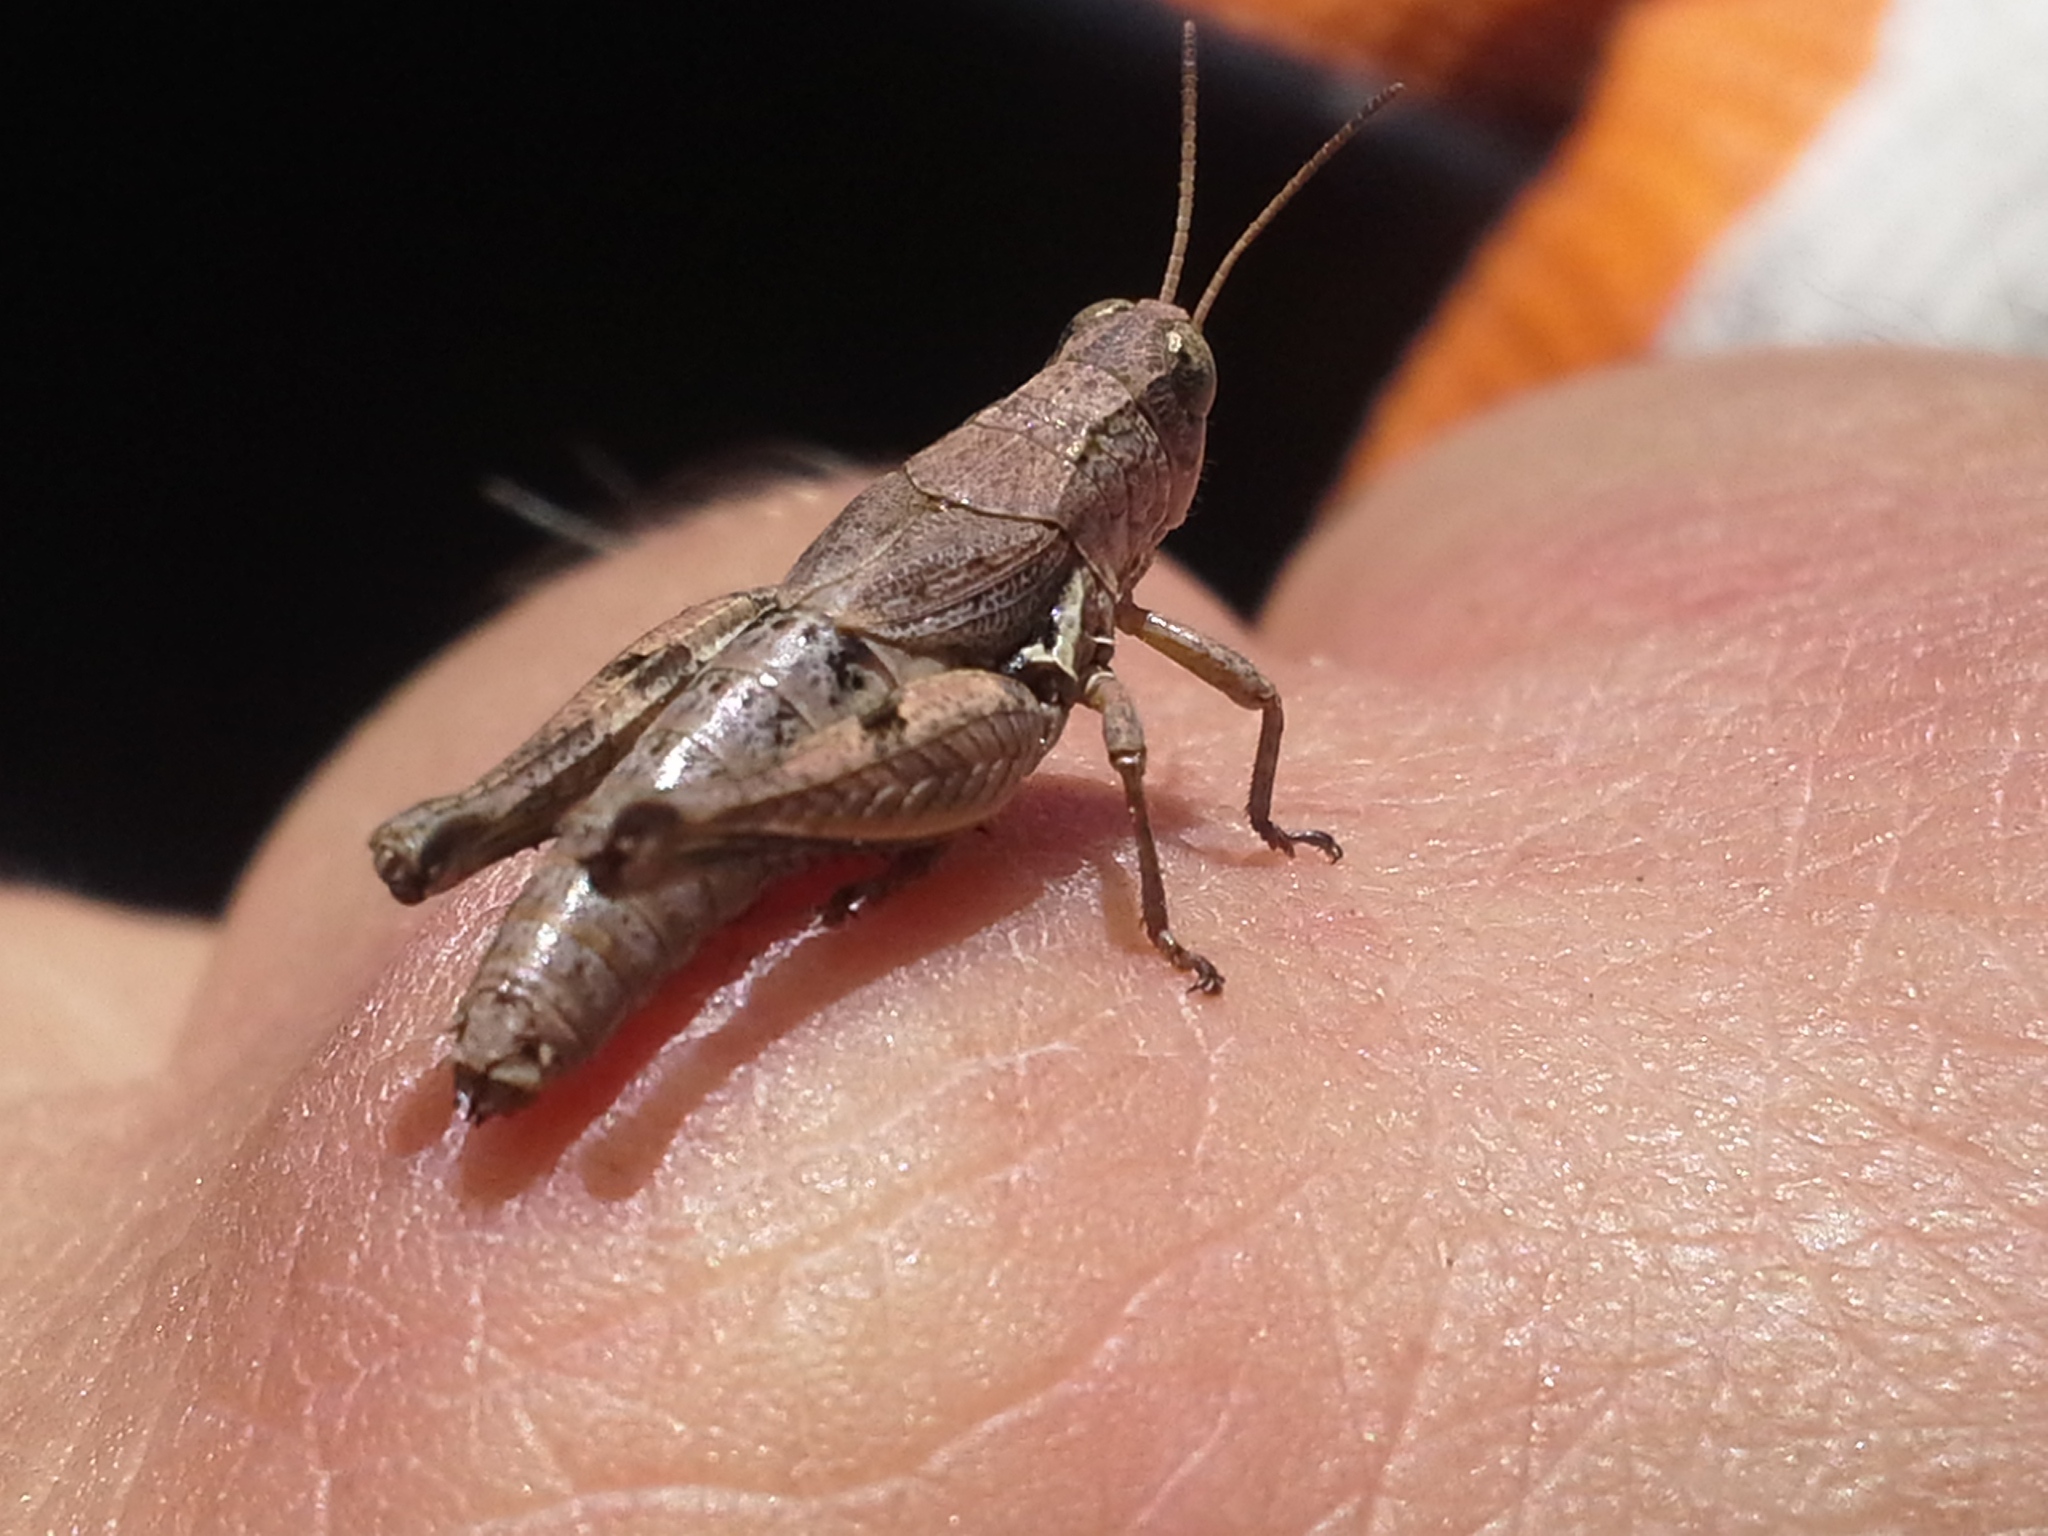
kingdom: Animalia
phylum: Arthropoda
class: Insecta
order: Orthoptera
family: Acrididae
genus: Phaulacridium
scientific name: Phaulacridium marginale
